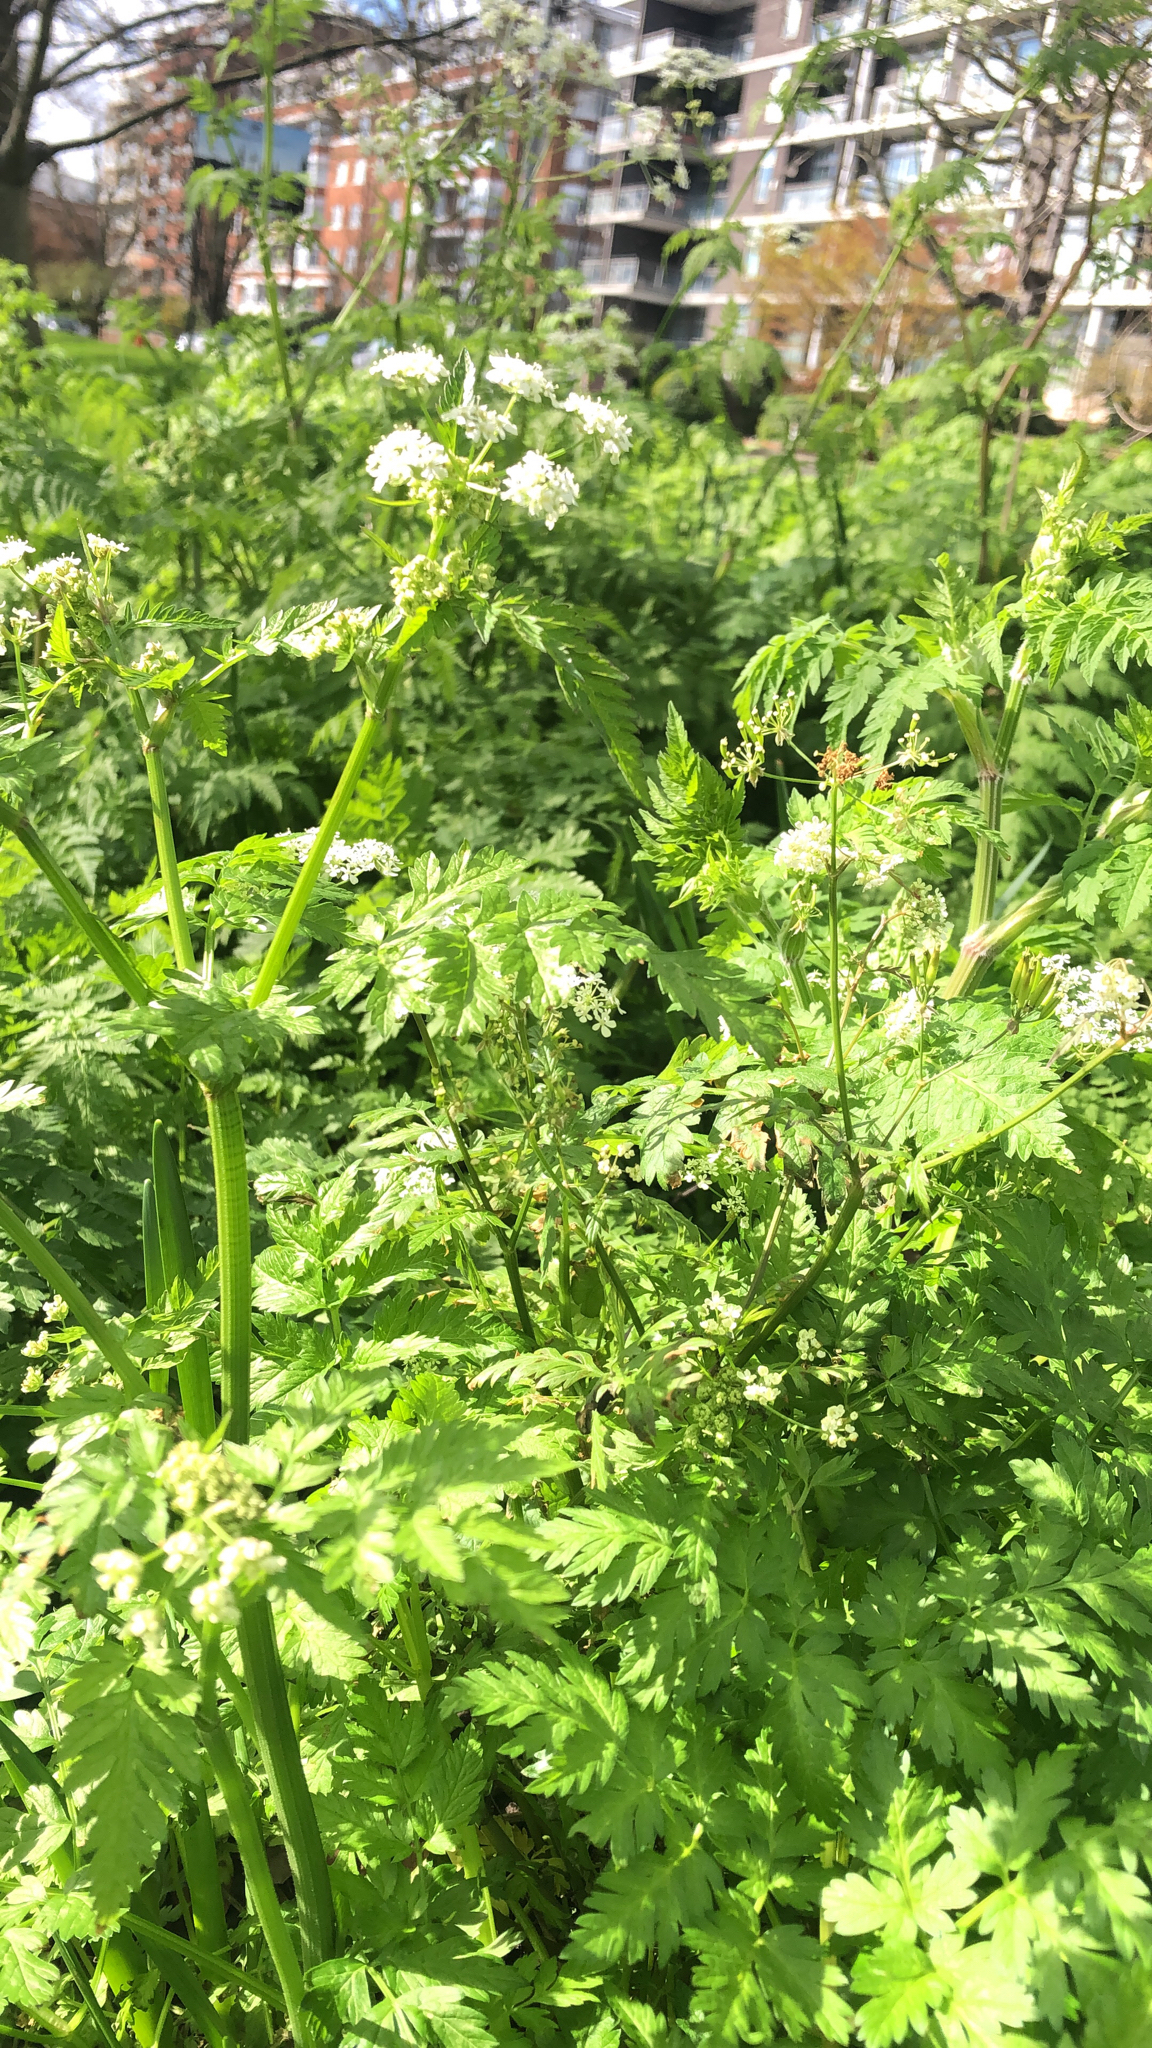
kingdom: Plantae
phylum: Tracheophyta
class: Magnoliopsida
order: Apiales
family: Apiaceae
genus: Anthriscus
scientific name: Anthriscus sylvestris
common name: Cow parsley
